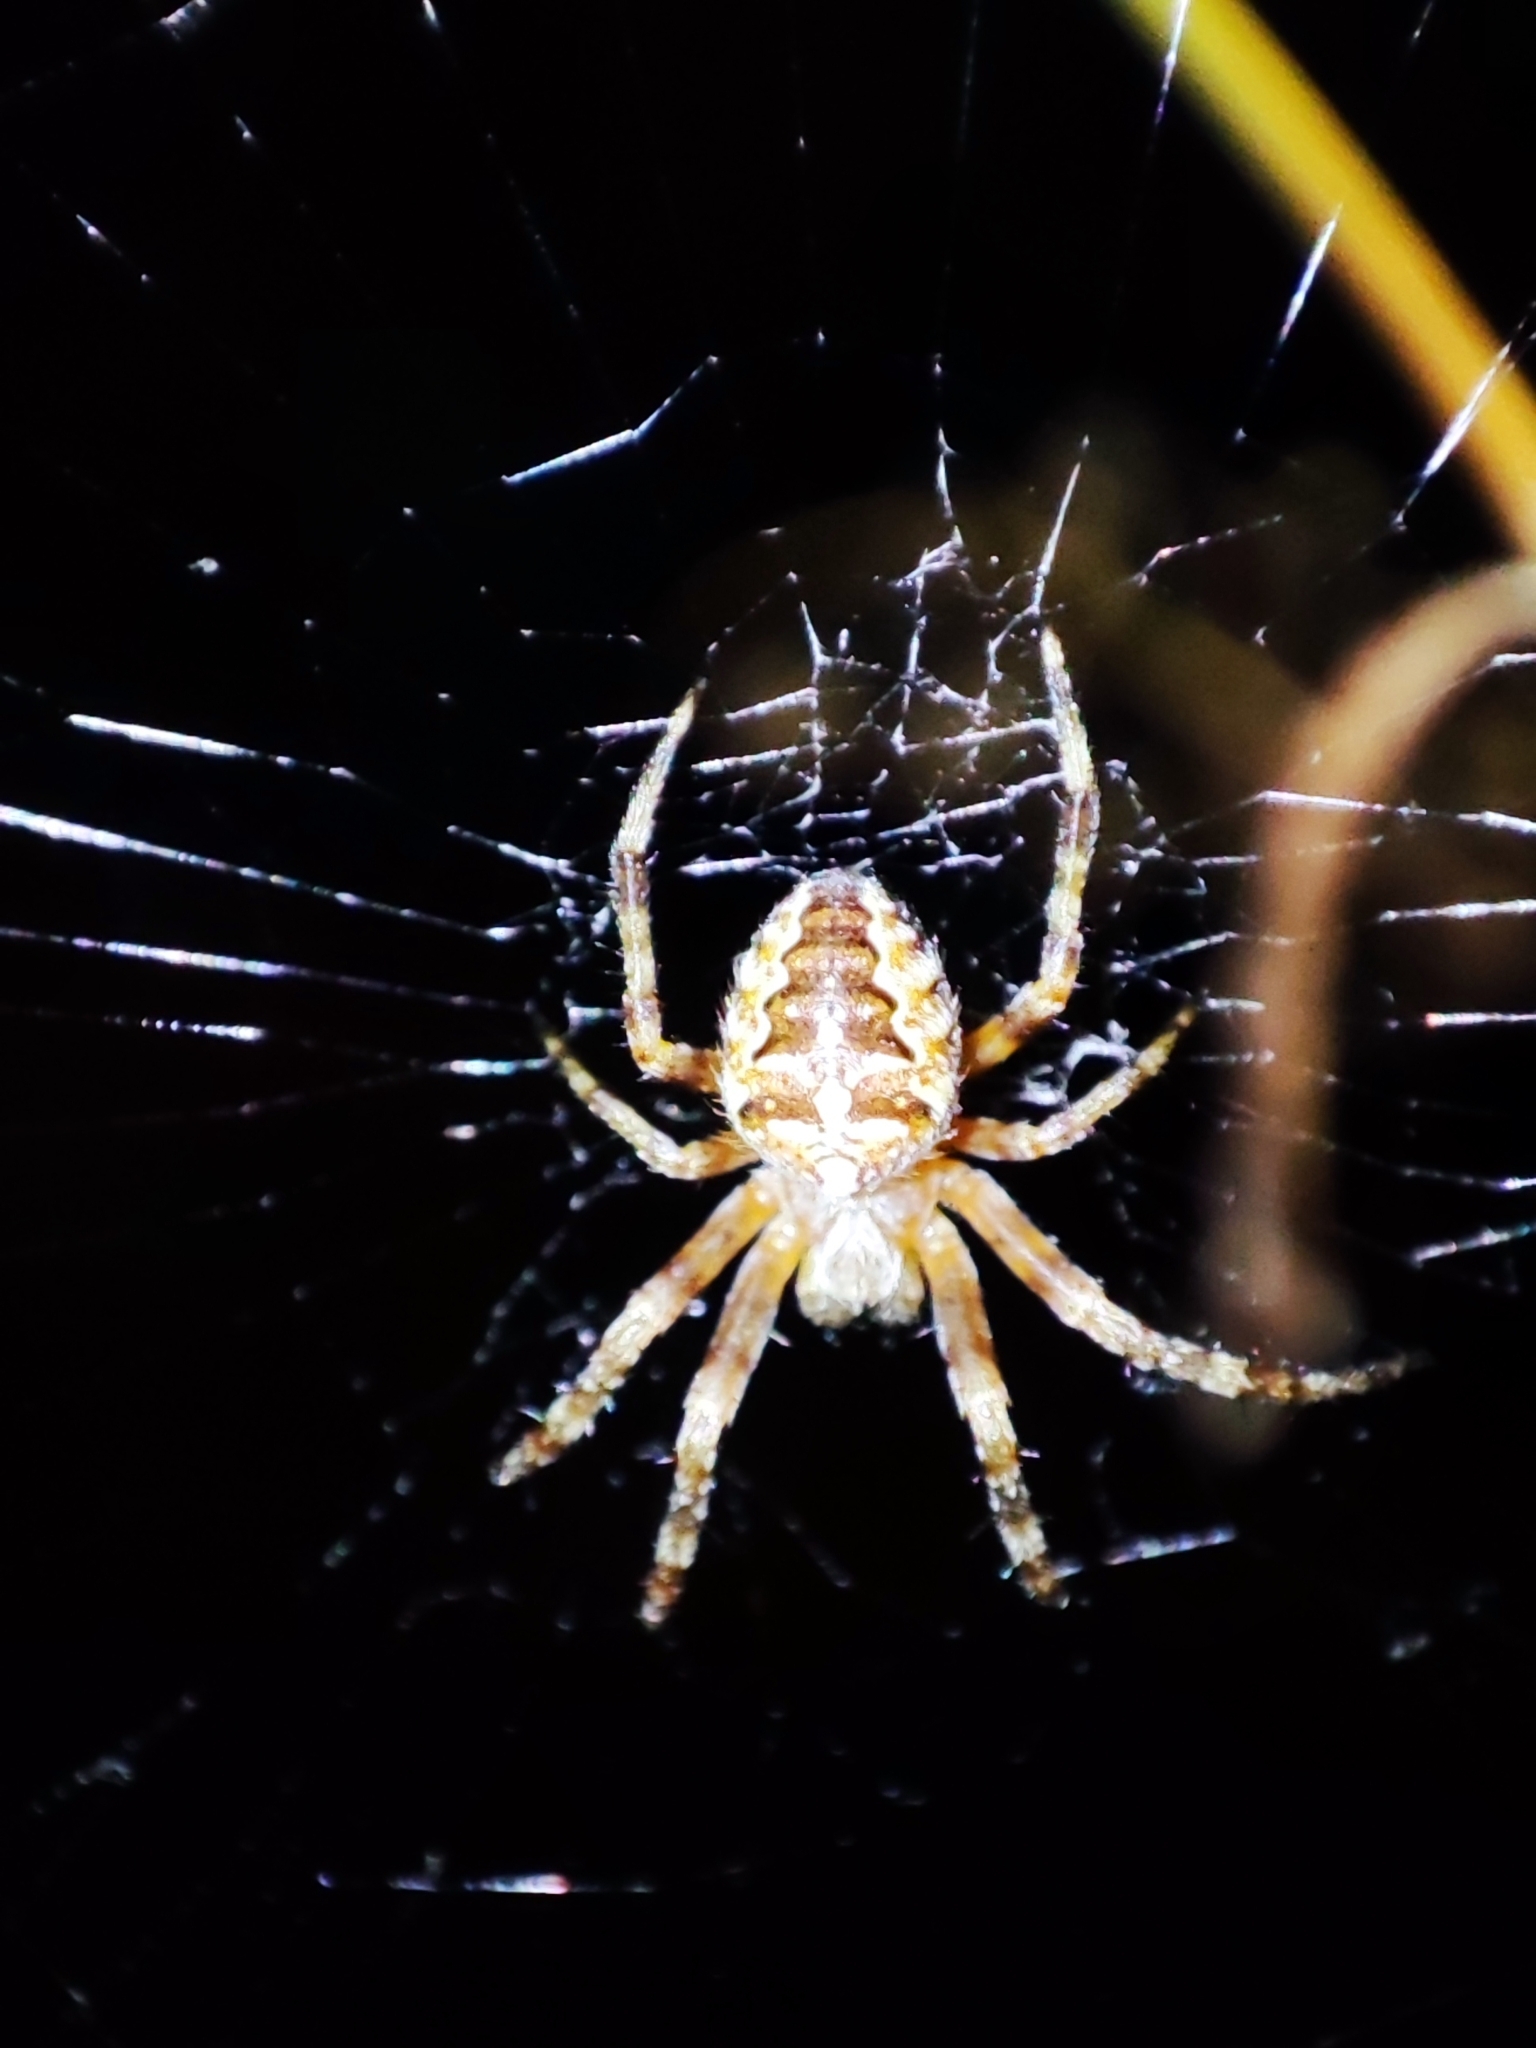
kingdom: Animalia
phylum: Arthropoda
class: Arachnida
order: Araneae
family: Araneidae
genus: Araneus
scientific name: Araneus diadematus
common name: Cross orbweaver
